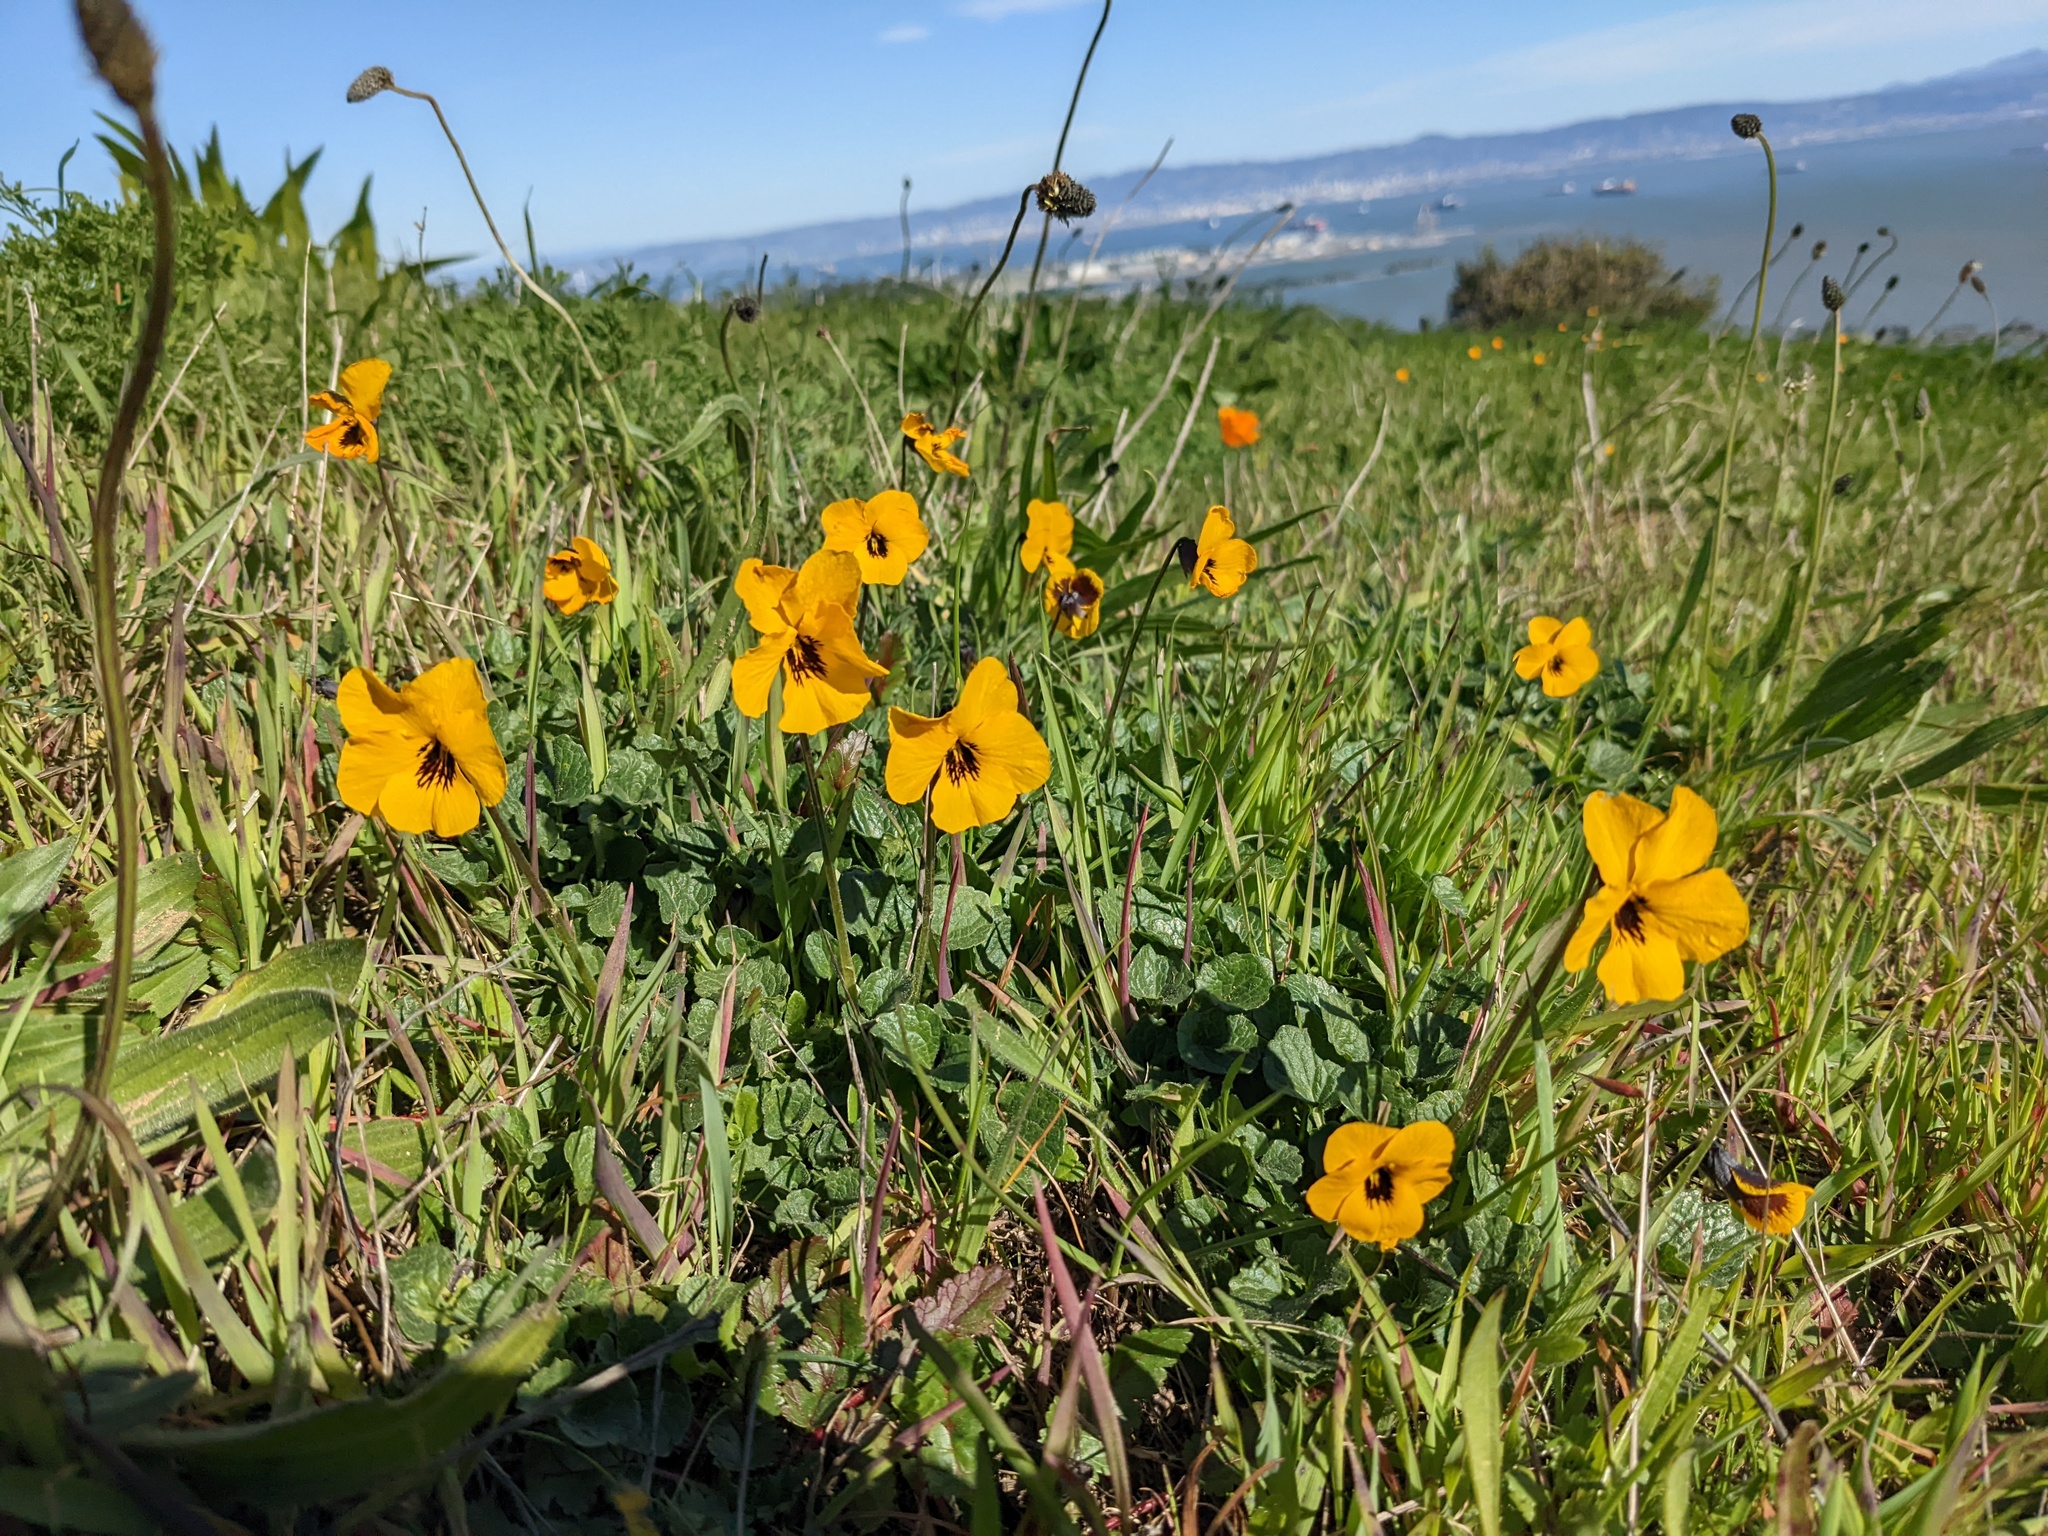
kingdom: Plantae
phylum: Tracheophyta
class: Magnoliopsida
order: Malpighiales
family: Violaceae
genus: Viola
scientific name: Viola pedunculata
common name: California golden violet
